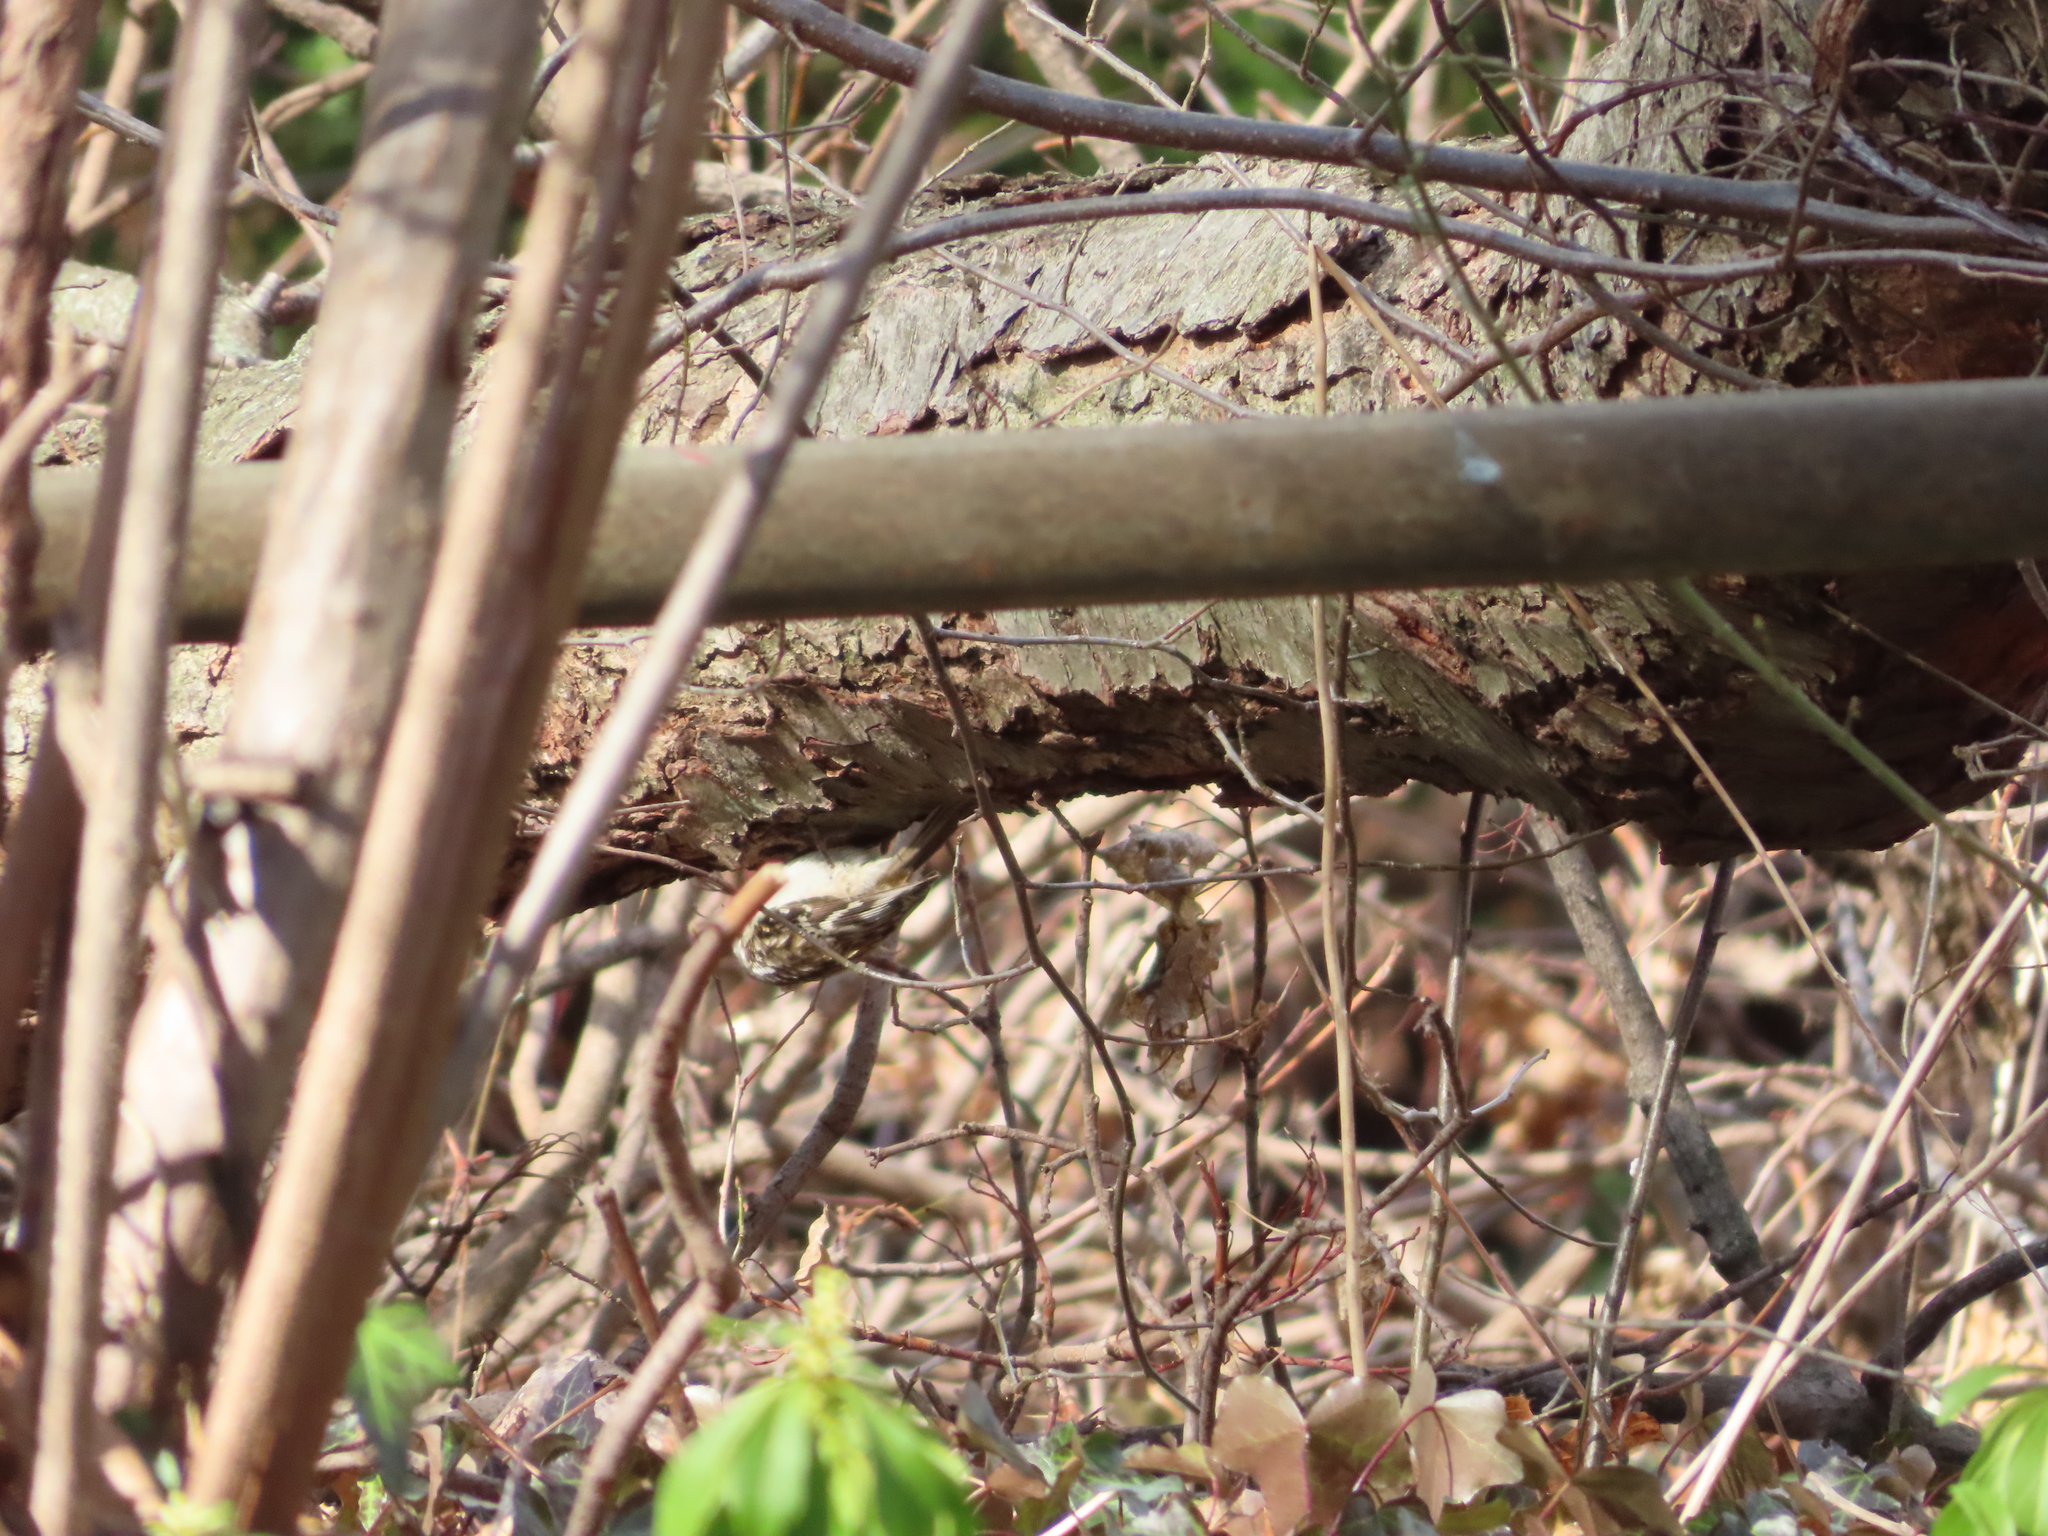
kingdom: Animalia
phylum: Chordata
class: Aves
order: Passeriformes
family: Certhiidae
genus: Certhia
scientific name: Certhia americana
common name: Brown creeper
